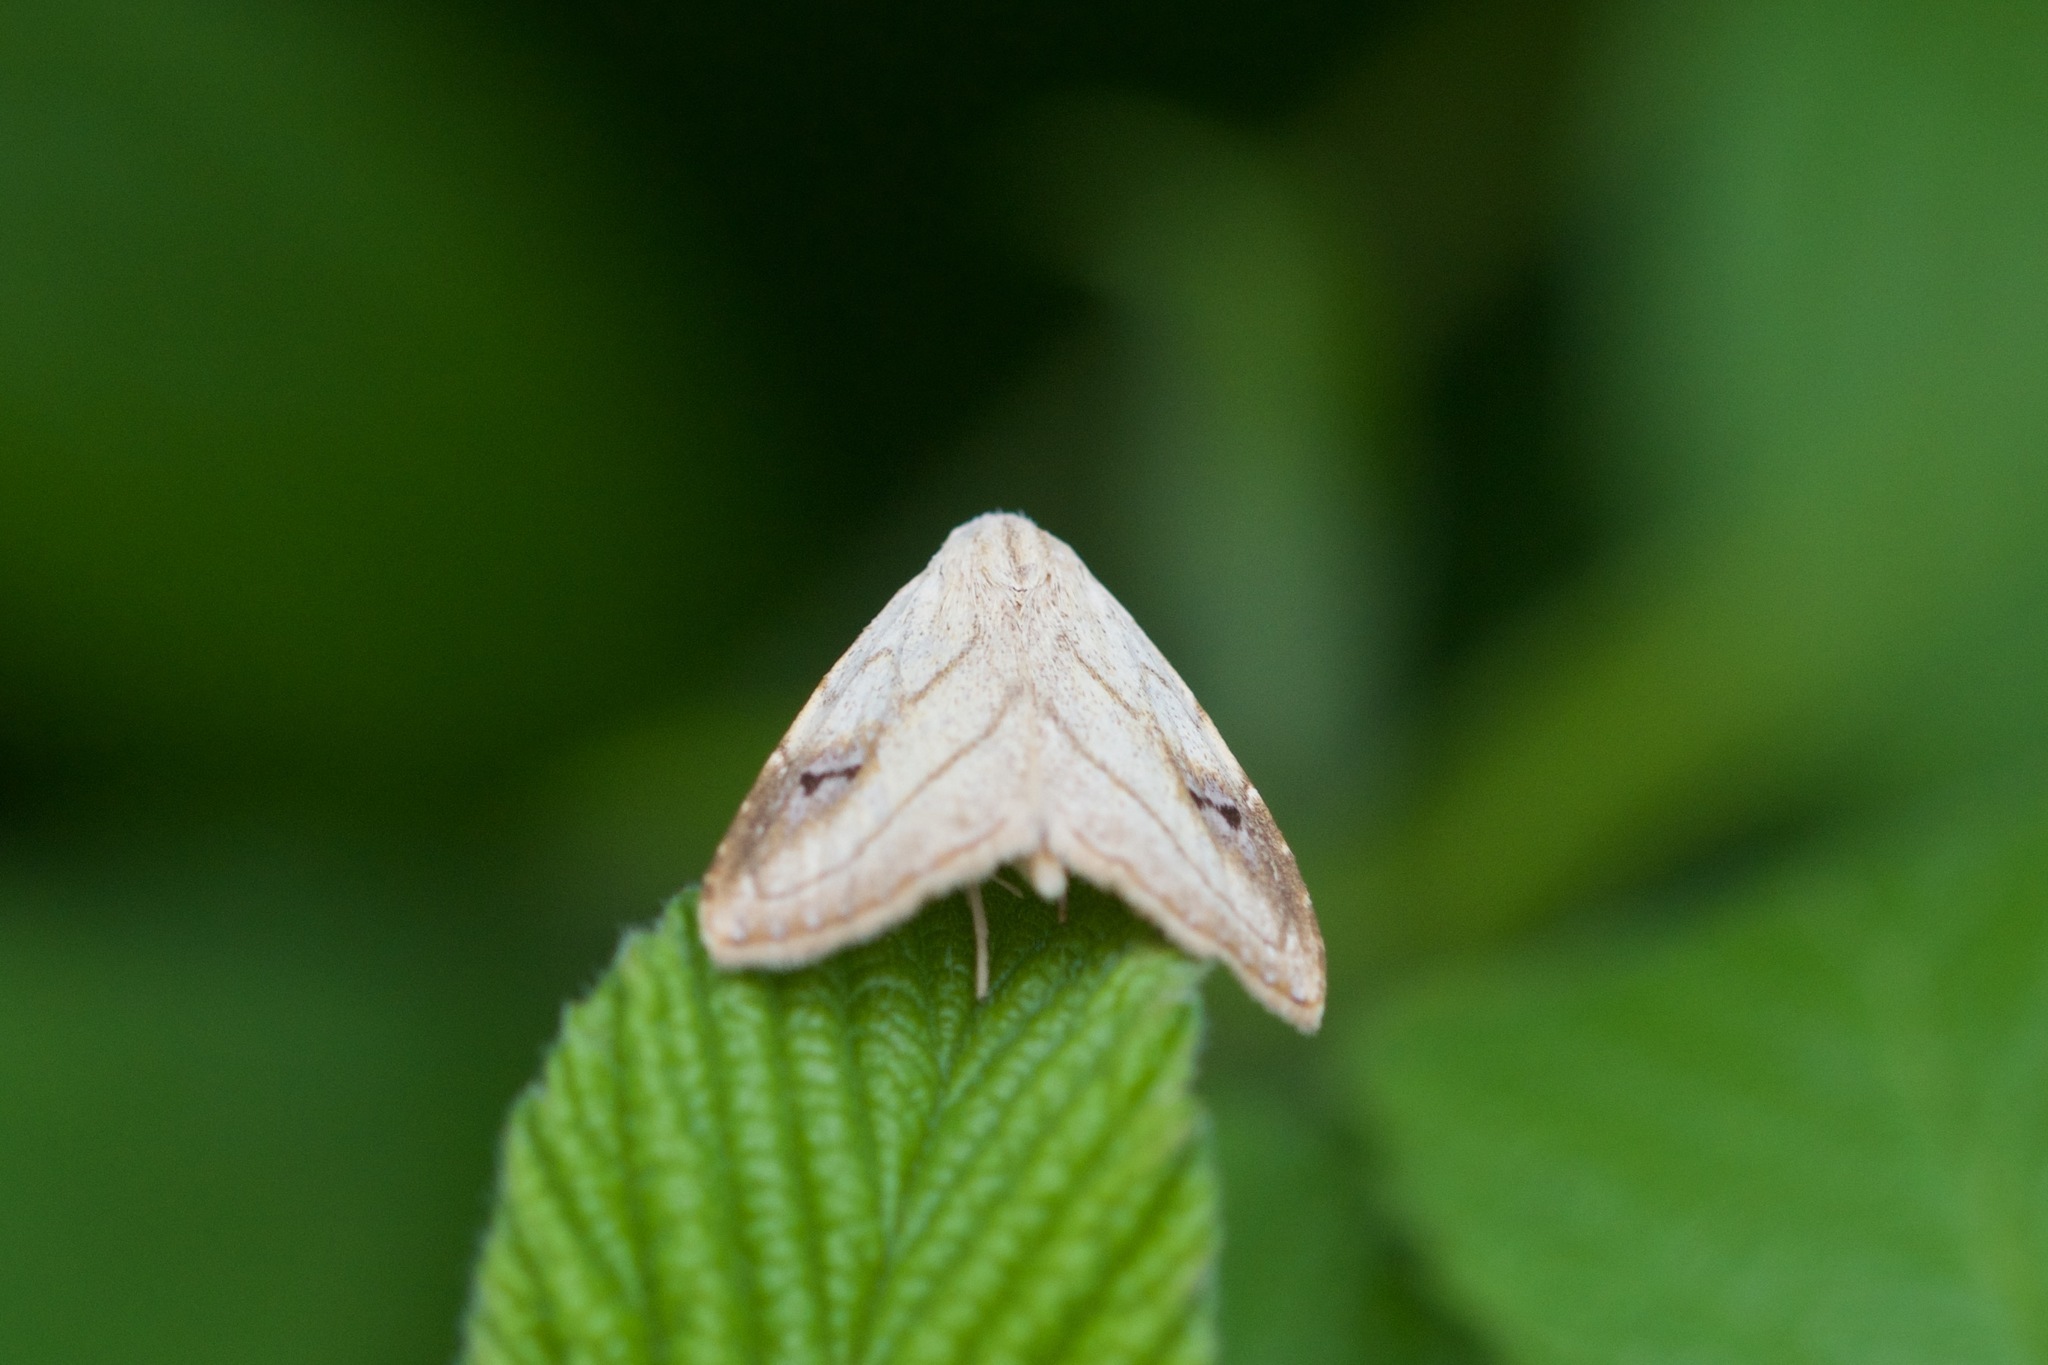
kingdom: Animalia
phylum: Arthropoda
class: Insecta
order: Lepidoptera
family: Erebidae
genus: Rivula
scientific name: Rivula propinqualis
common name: Spotted grass moth
